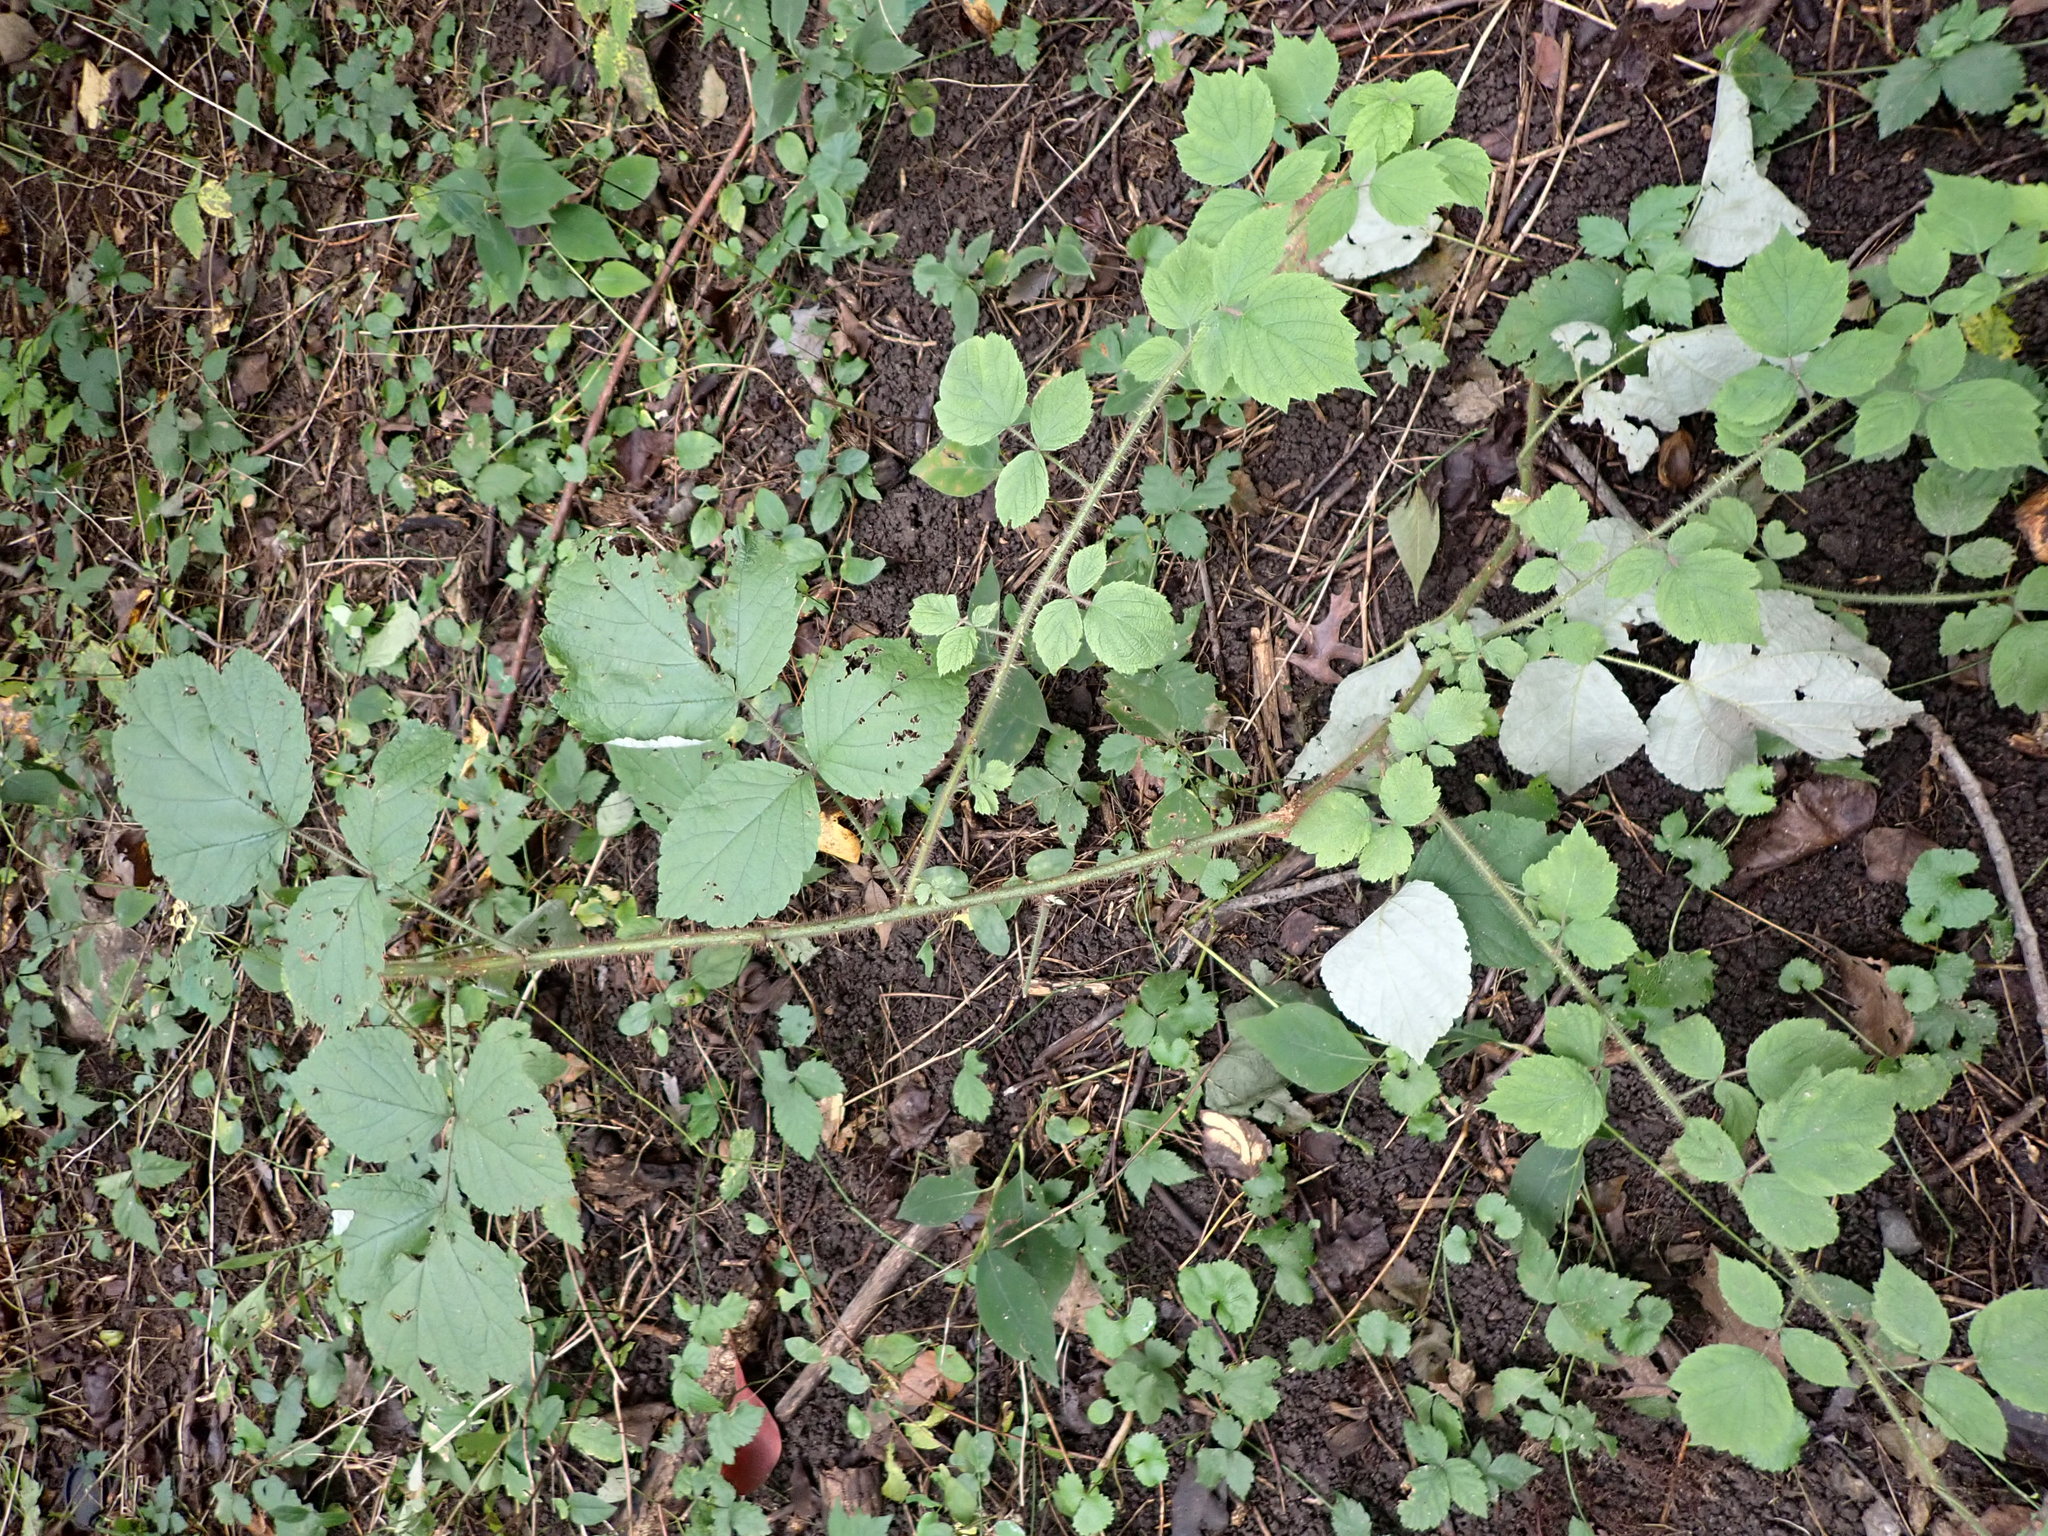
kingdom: Plantae
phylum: Tracheophyta
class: Magnoliopsida
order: Rosales
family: Rosaceae
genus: Rubus
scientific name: Rubus phoenicolasius
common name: Japanese wineberry
